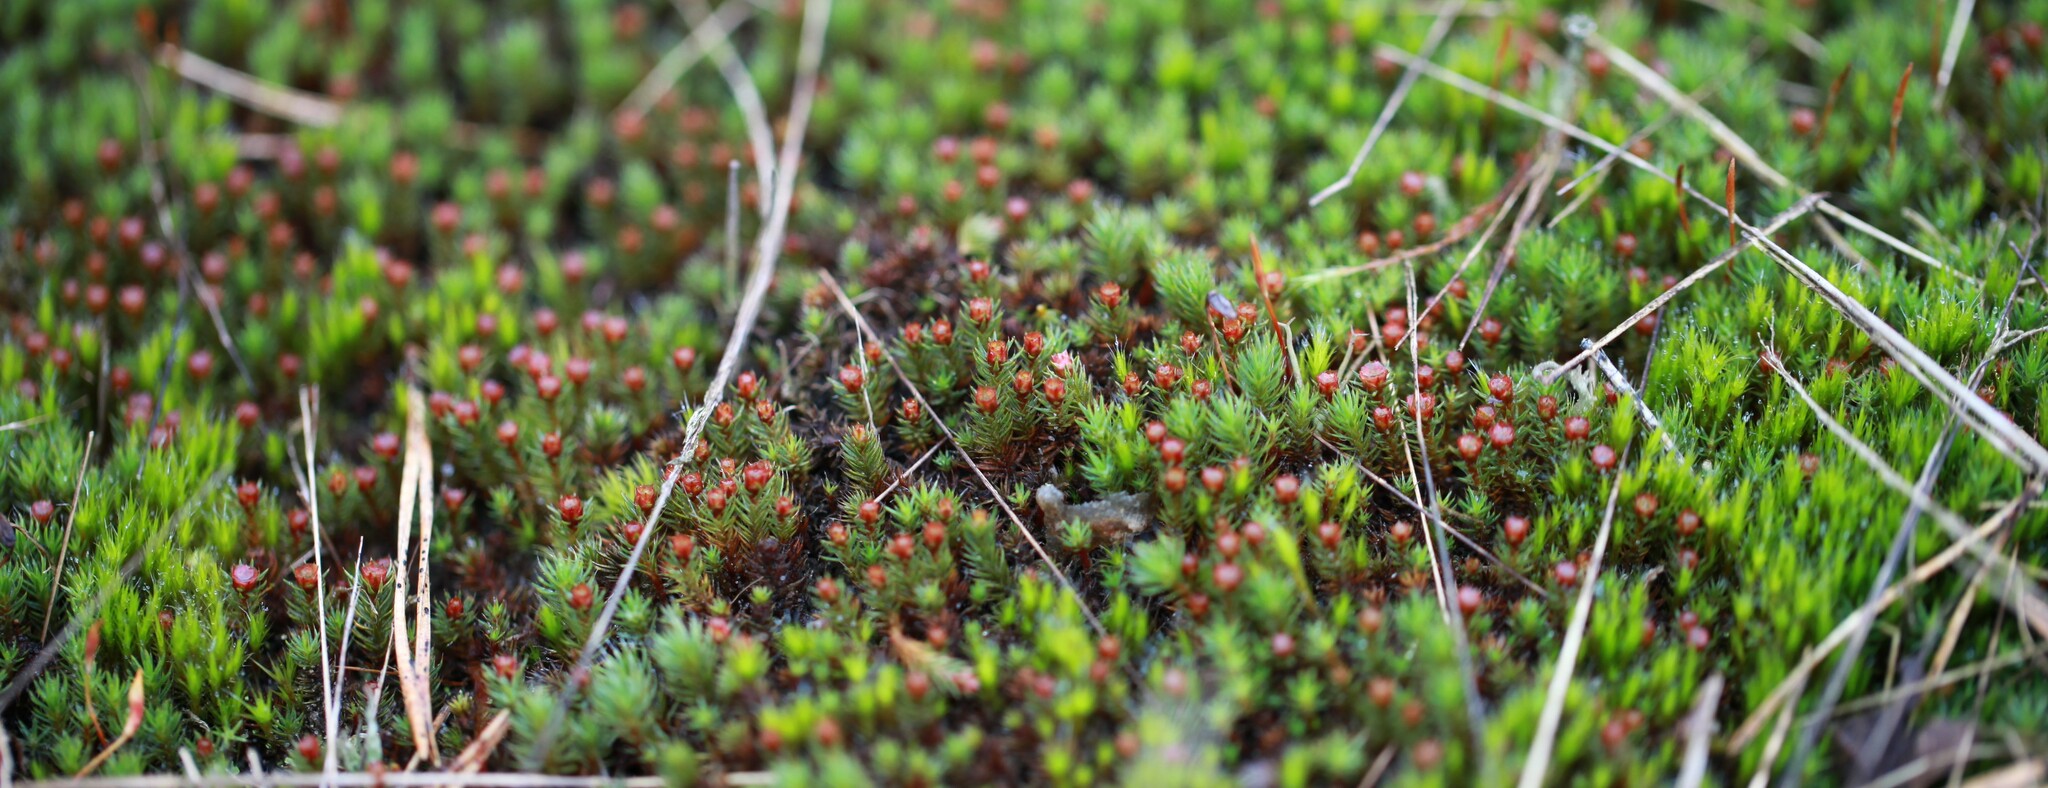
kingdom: Plantae
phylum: Bryophyta
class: Polytrichopsida
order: Polytrichales
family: Polytrichaceae
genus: Polytrichum
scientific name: Polytrichum piliferum
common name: Bristly haircap
